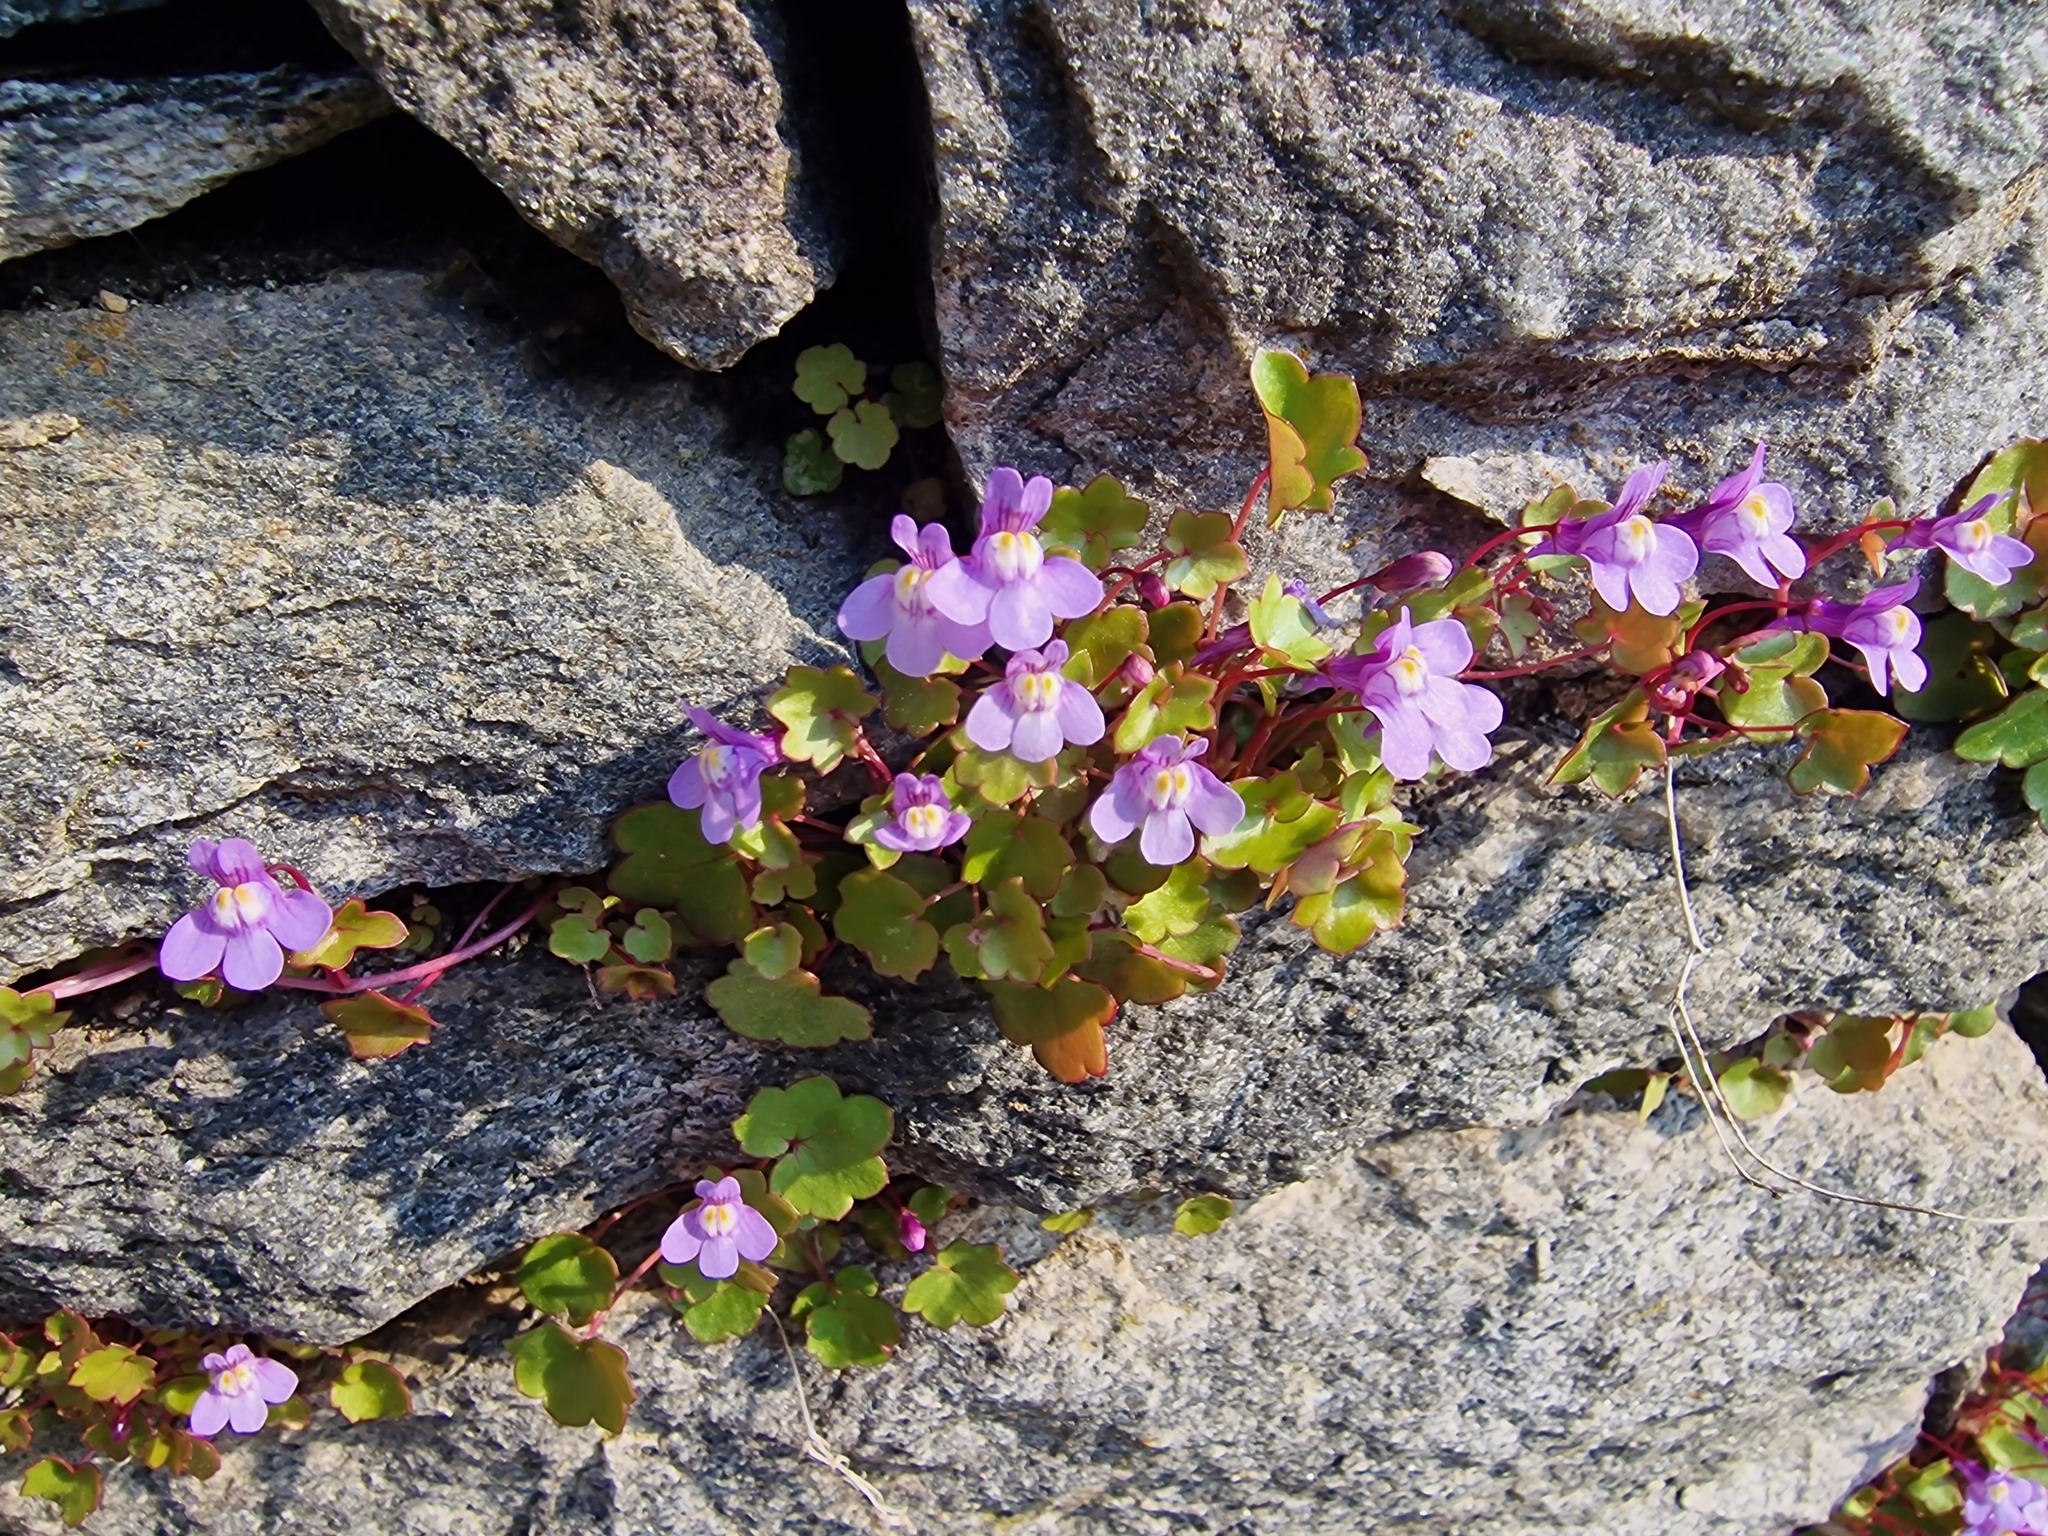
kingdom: Plantae
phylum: Tracheophyta
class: Magnoliopsida
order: Lamiales
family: Plantaginaceae
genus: Cymbalaria
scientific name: Cymbalaria muralis
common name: Ivy-leaved toadflax
